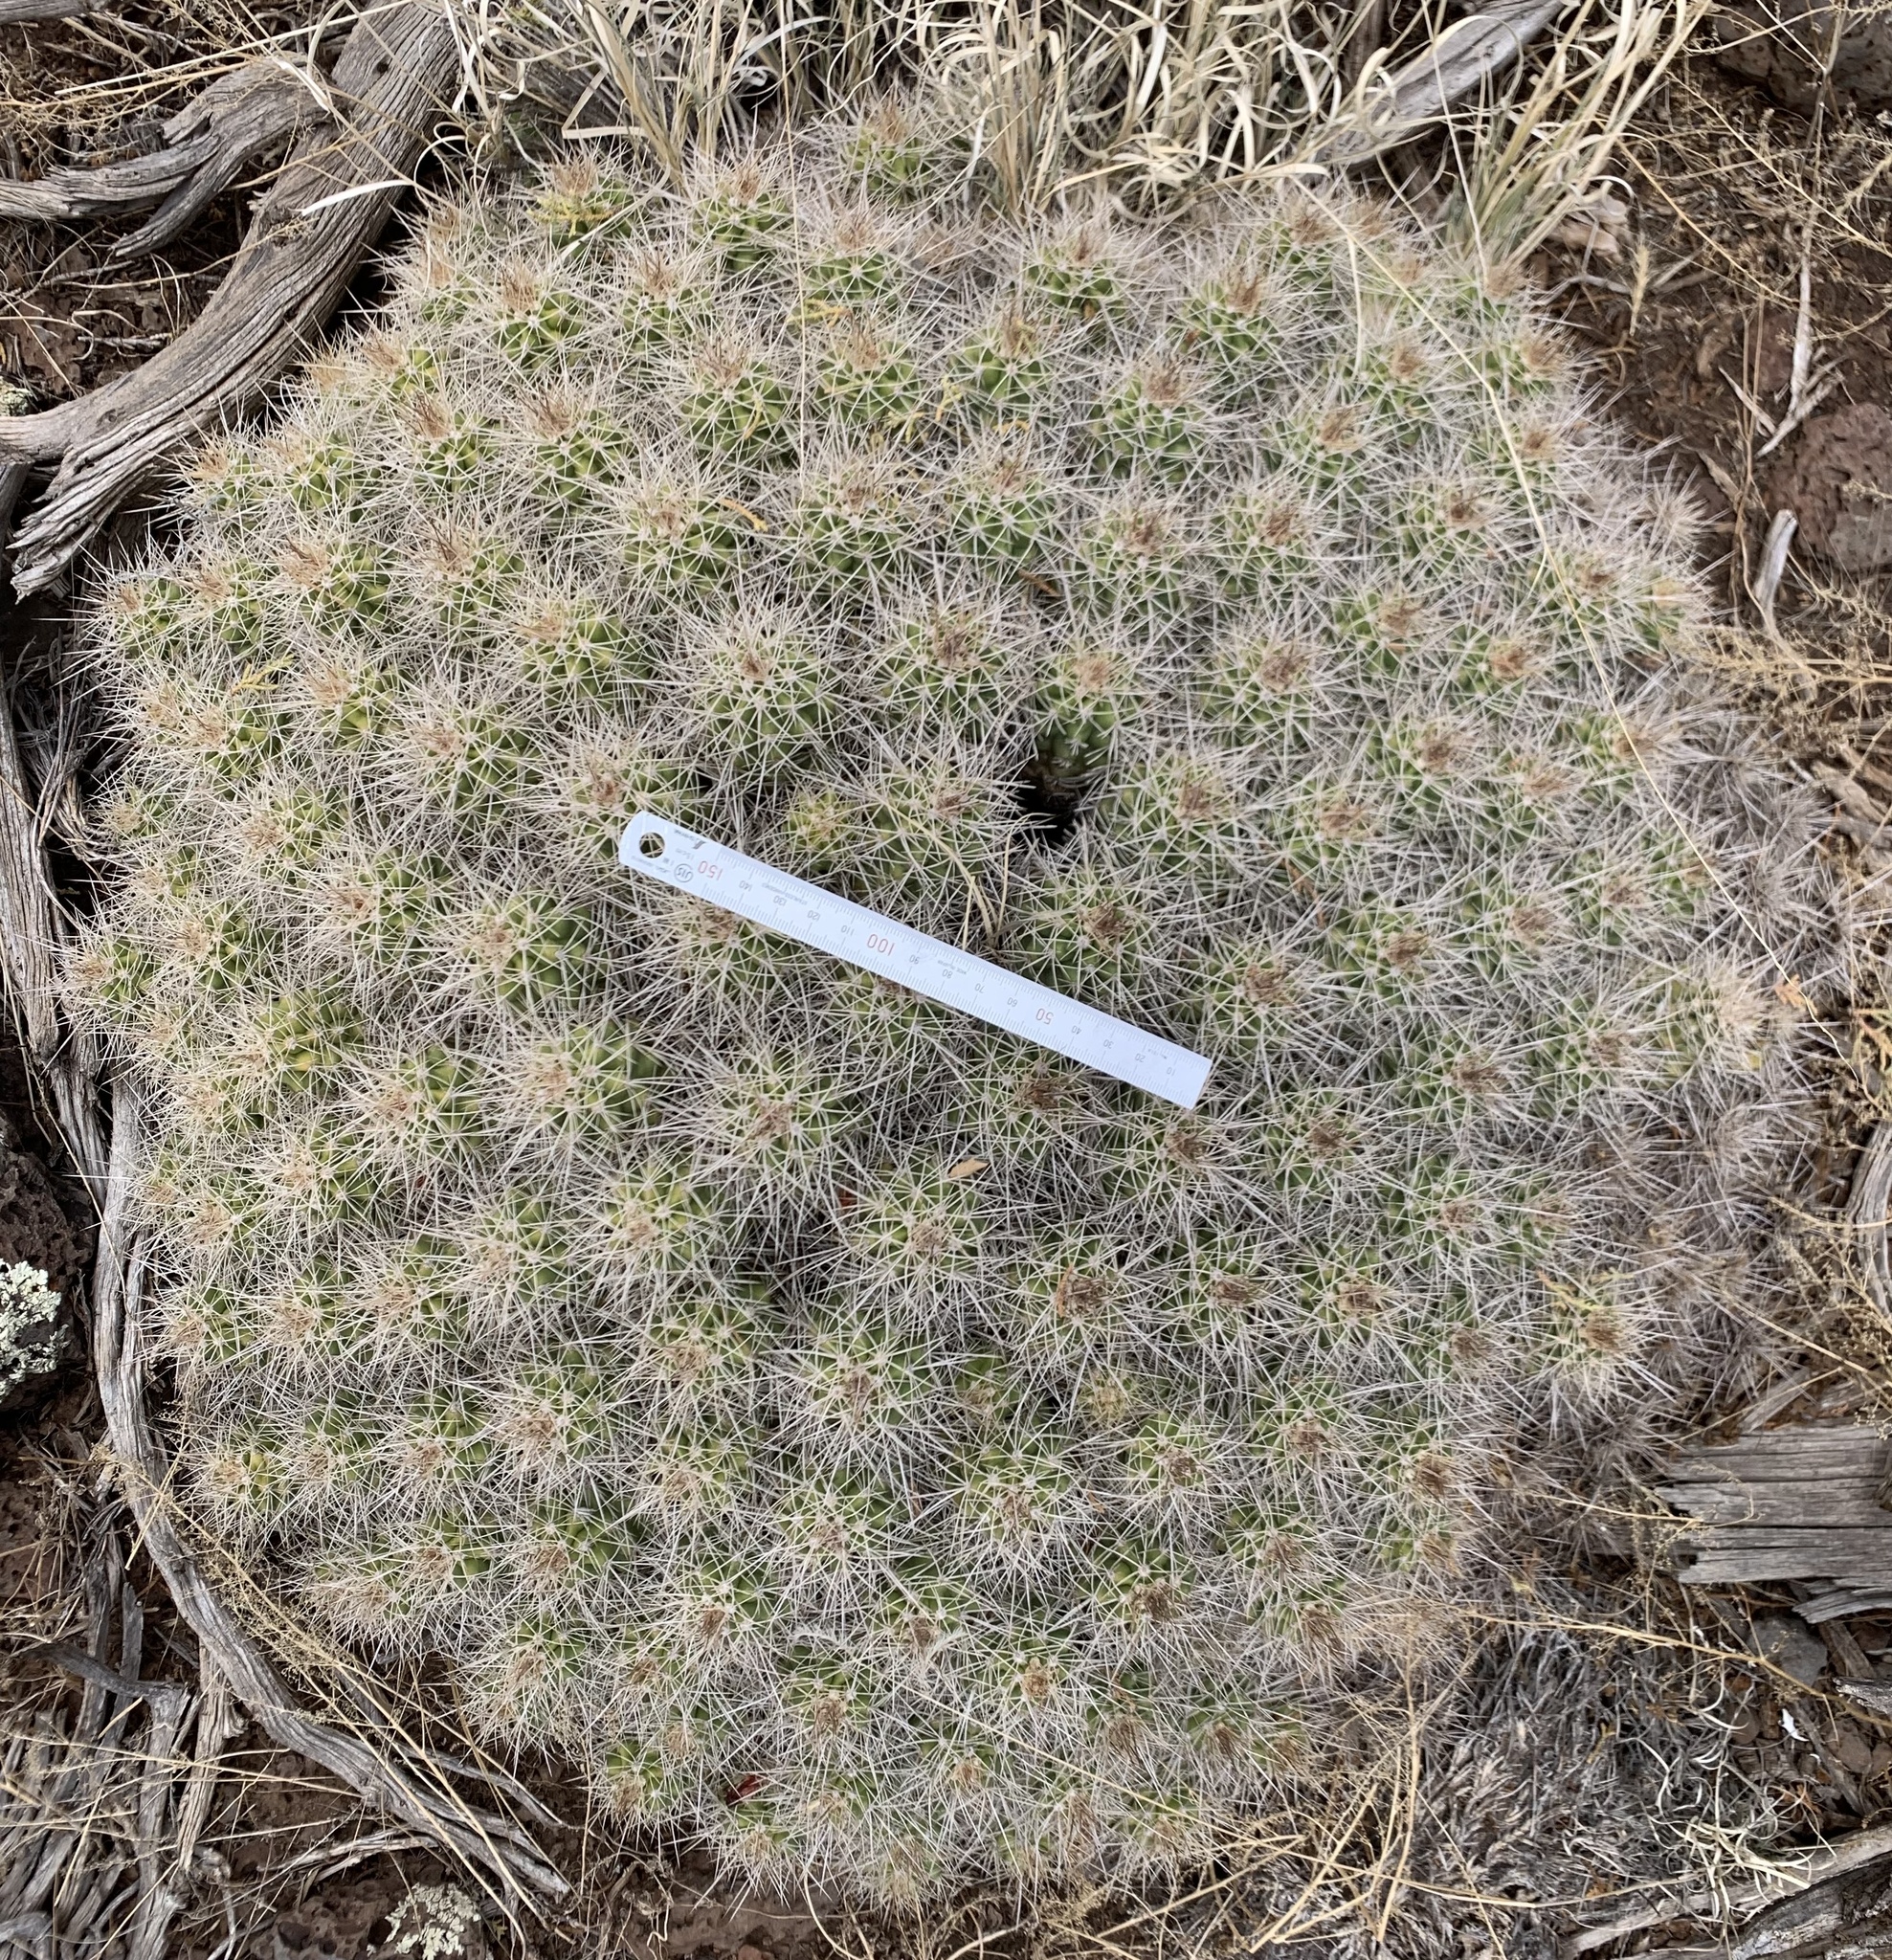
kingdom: Plantae
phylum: Tracheophyta
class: Magnoliopsida
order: Caryophyllales
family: Cactaceae
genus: Echinocereus
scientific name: Echinocereus triglochidiatus
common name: Claretcup hedgehog
